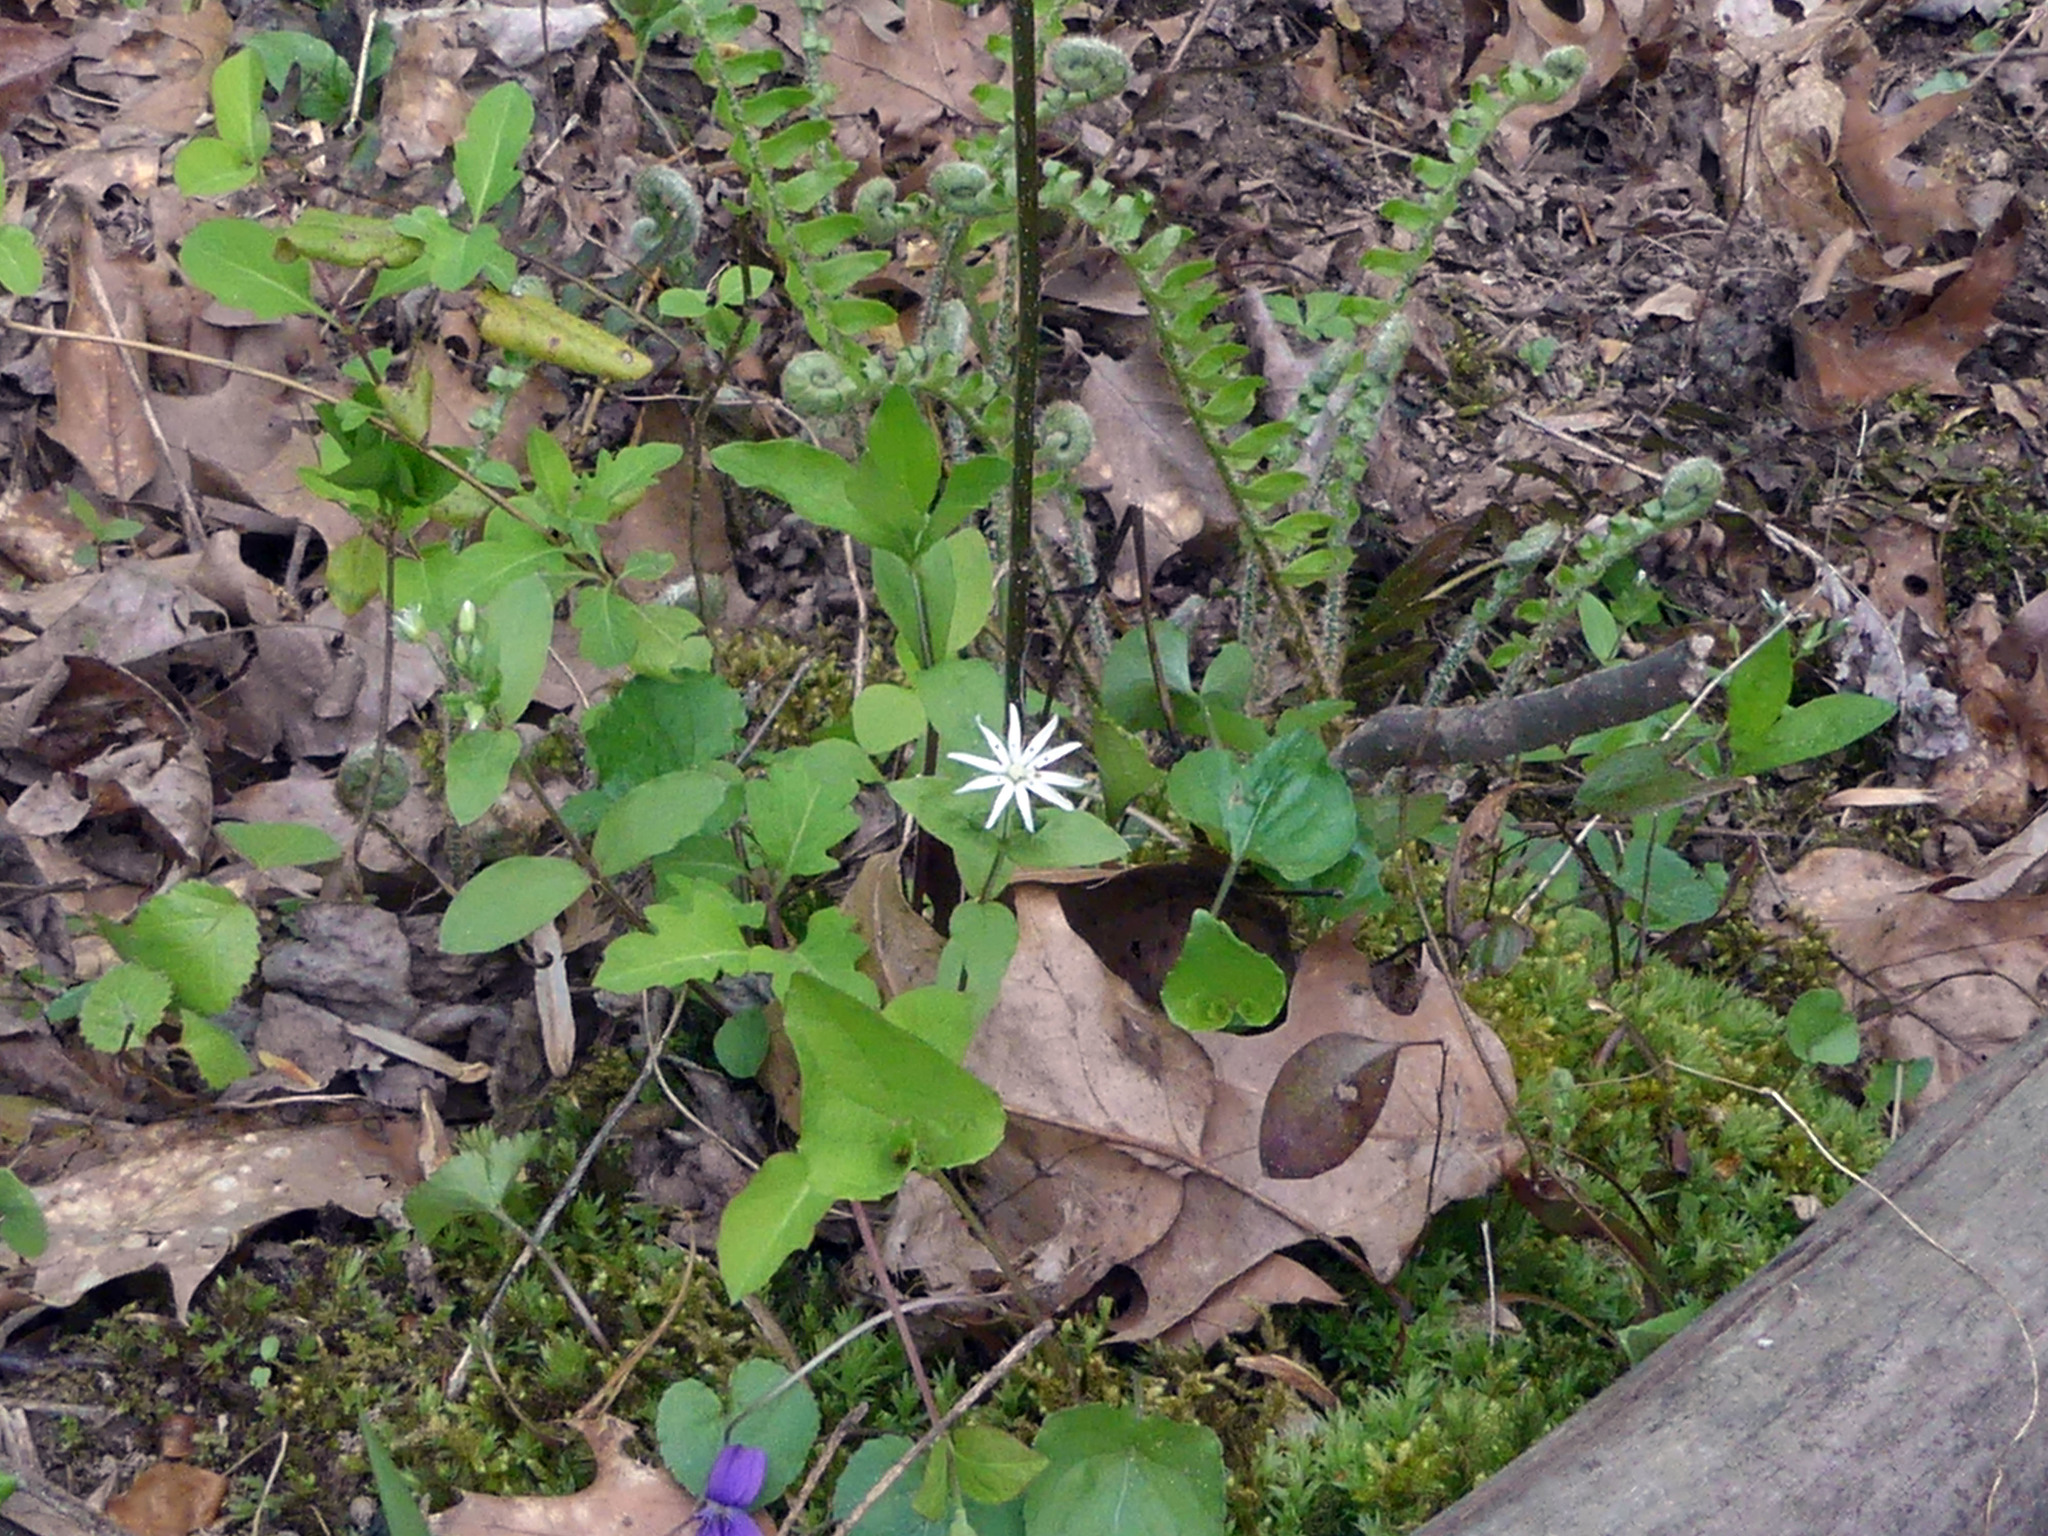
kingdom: Plantae
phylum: Tracheophyta
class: Magnoliopsida
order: Caryophyllales
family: Caryophyllaceae
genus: Stellaria
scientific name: Stellaria pubera
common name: Star chickweed
